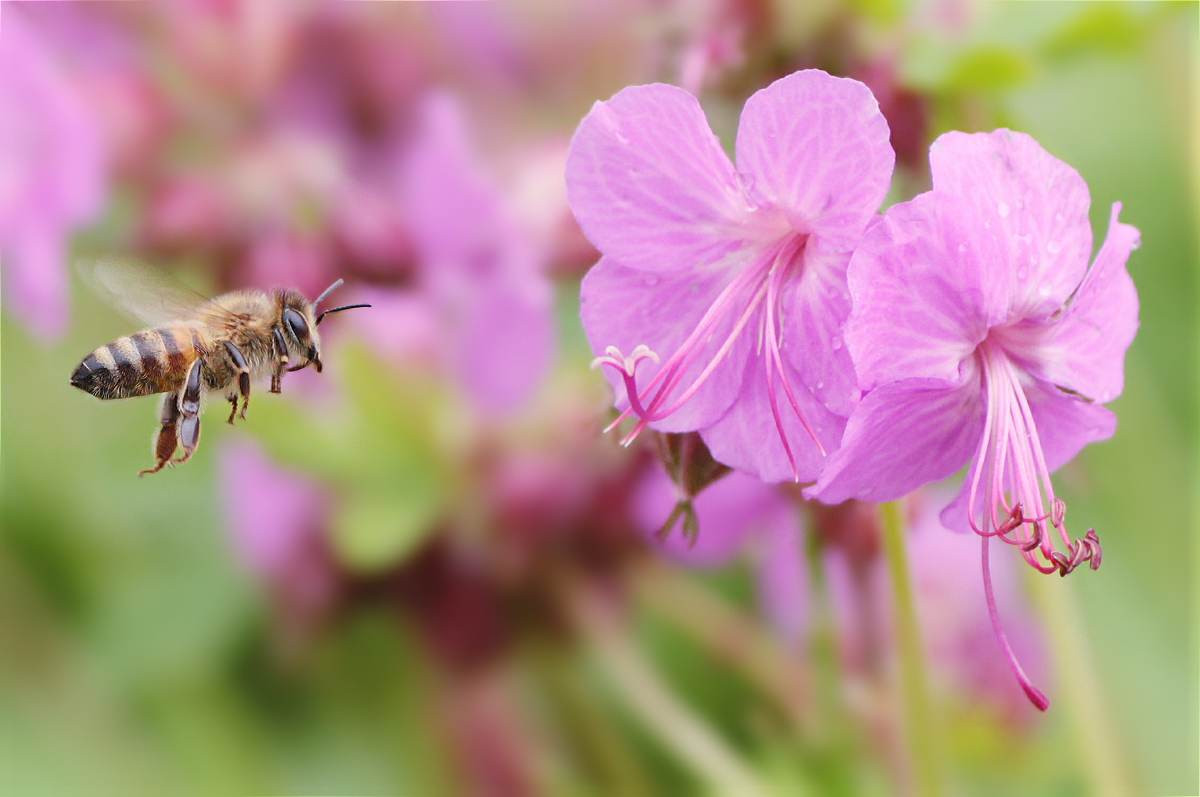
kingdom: Animalia
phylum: Arthropoda
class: Insecta
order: Hymenoptera
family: Apidae
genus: Apis
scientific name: Apis mellifera
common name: Honey bee
